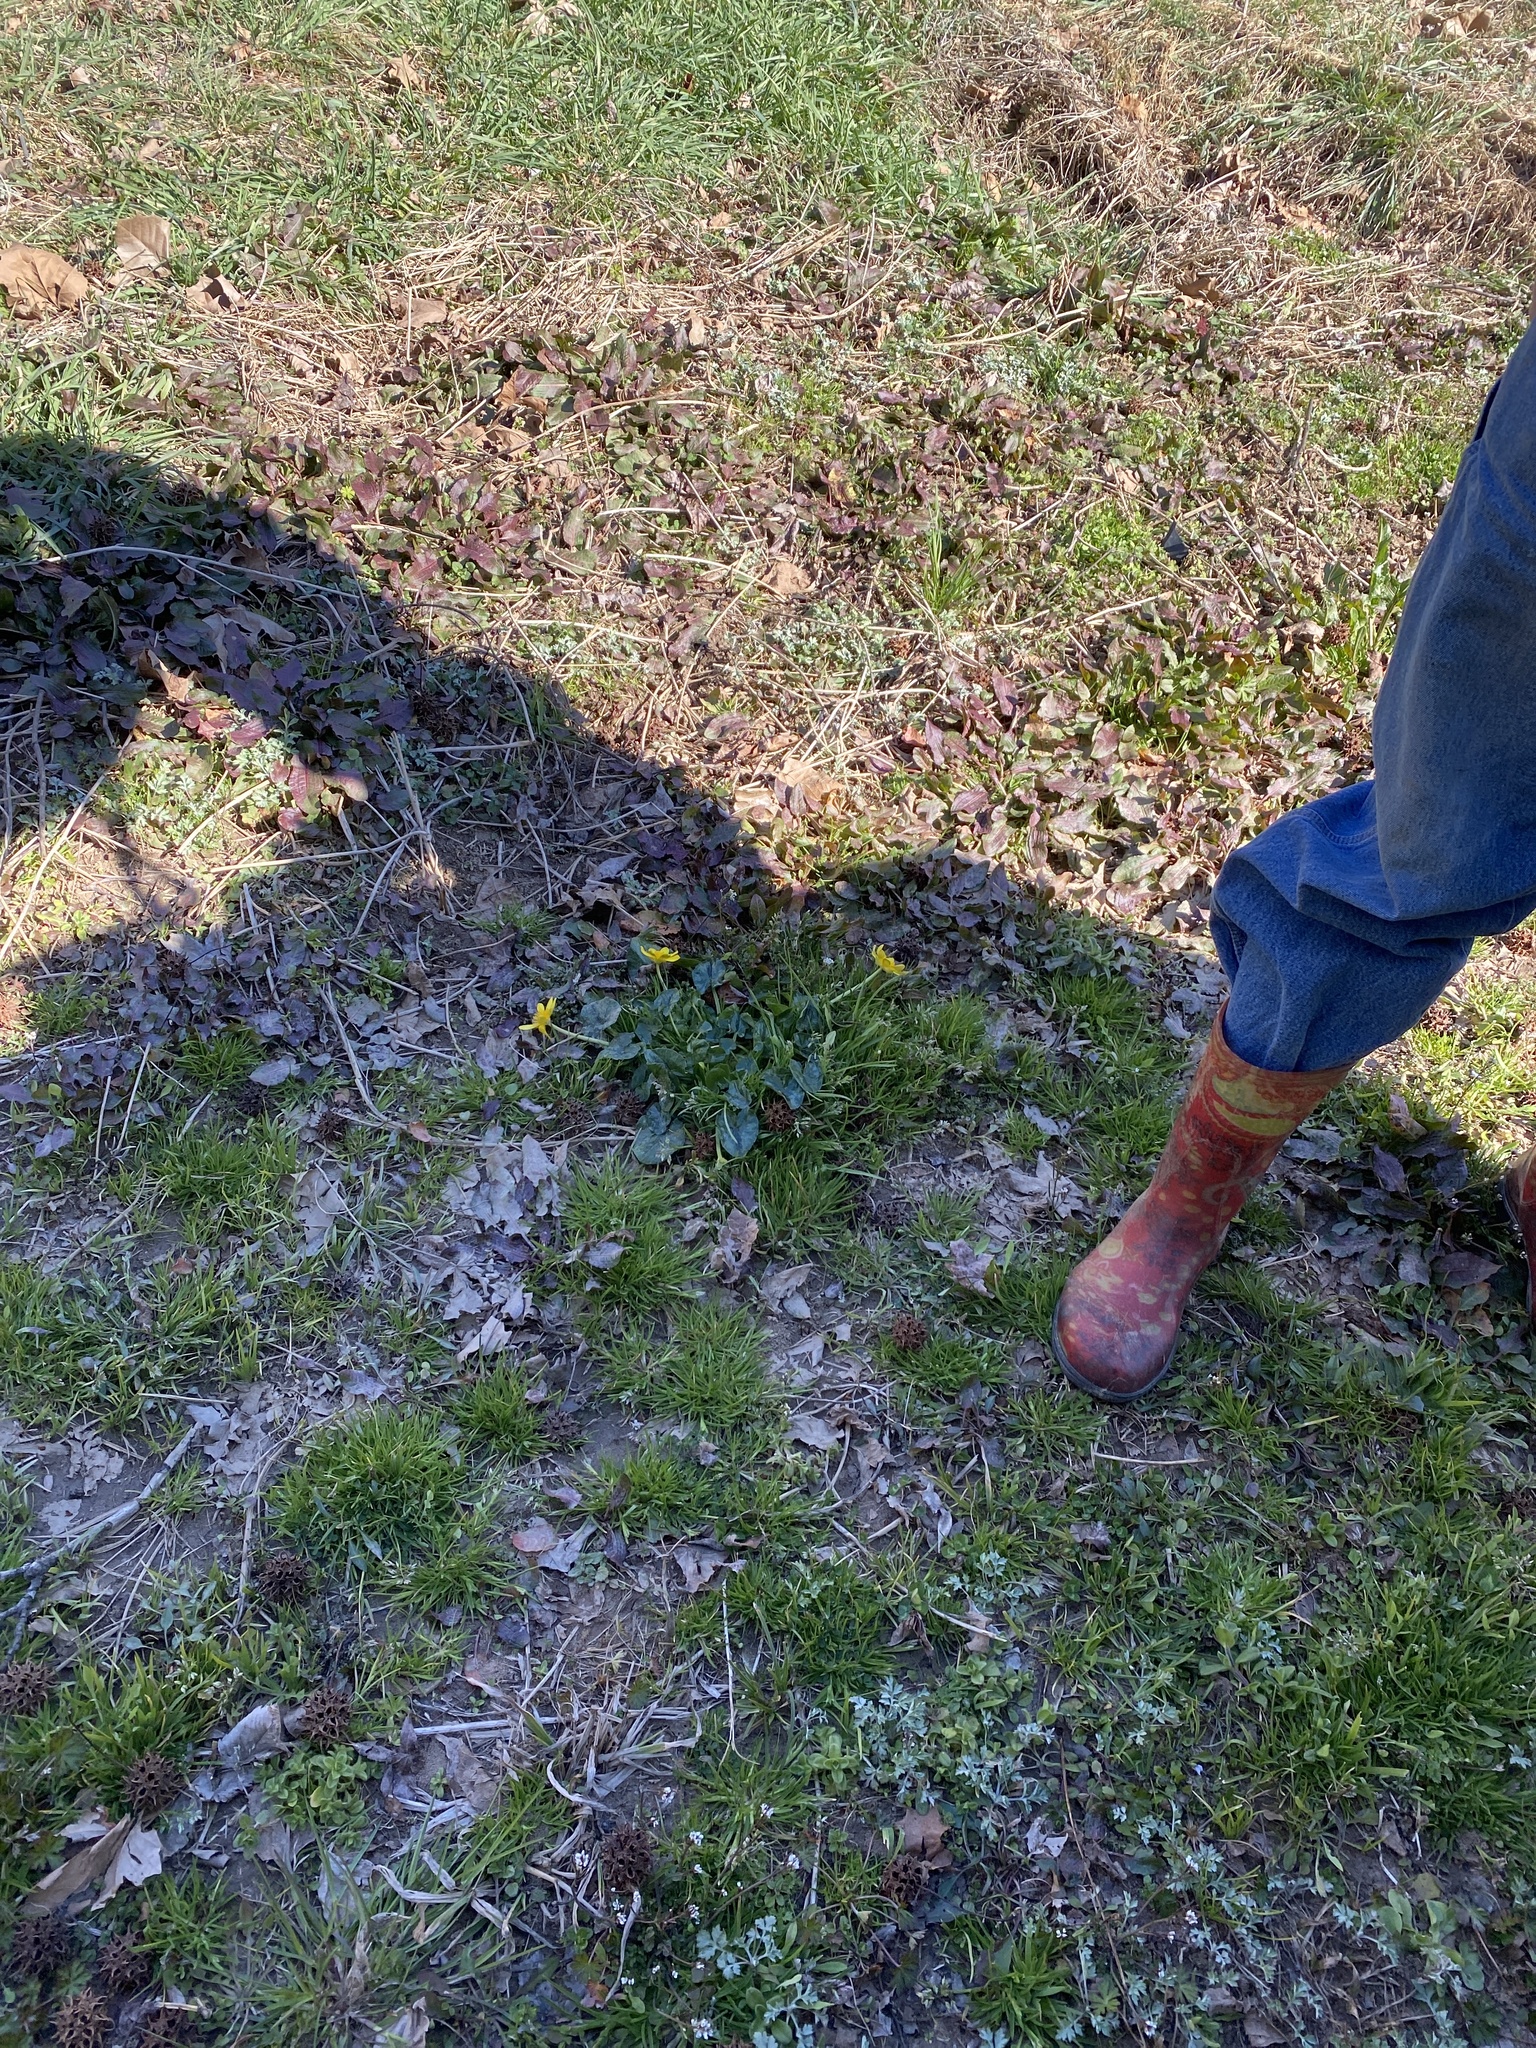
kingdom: Plantae
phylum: Tracheophyta
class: Magnoliopsida
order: Ranunculales
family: Ranunculaceae
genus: Ficaria
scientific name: Ficaria verna
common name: Lesser celandine
